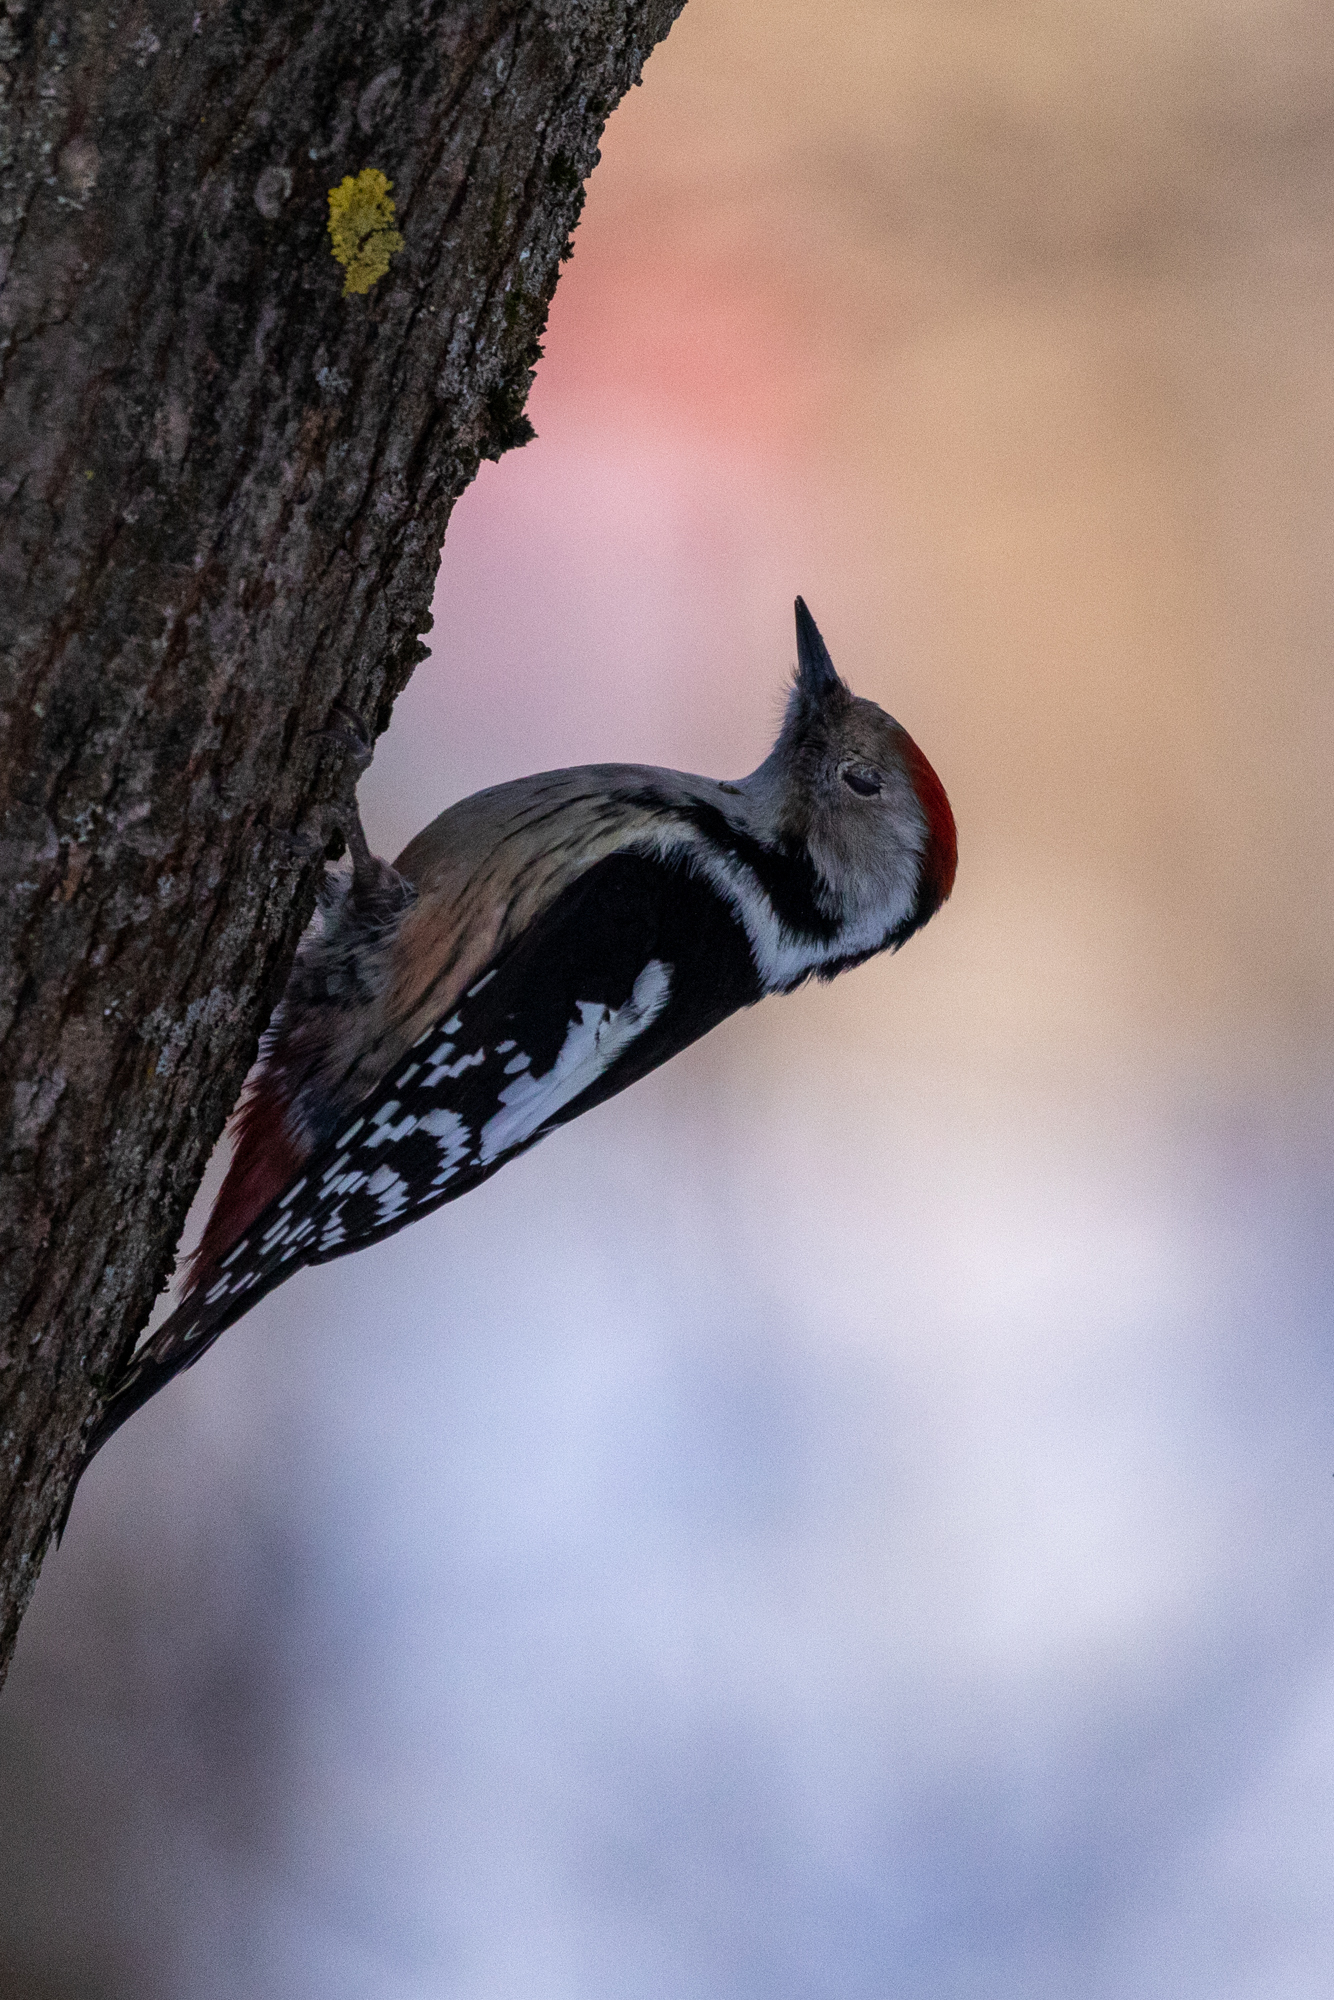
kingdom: Animalia
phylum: Chordata
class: Aves
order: Piciformes
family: Picidae
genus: Dendrocoptes
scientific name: Dendrocoptes medius
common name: Middle spotted woodpecker
